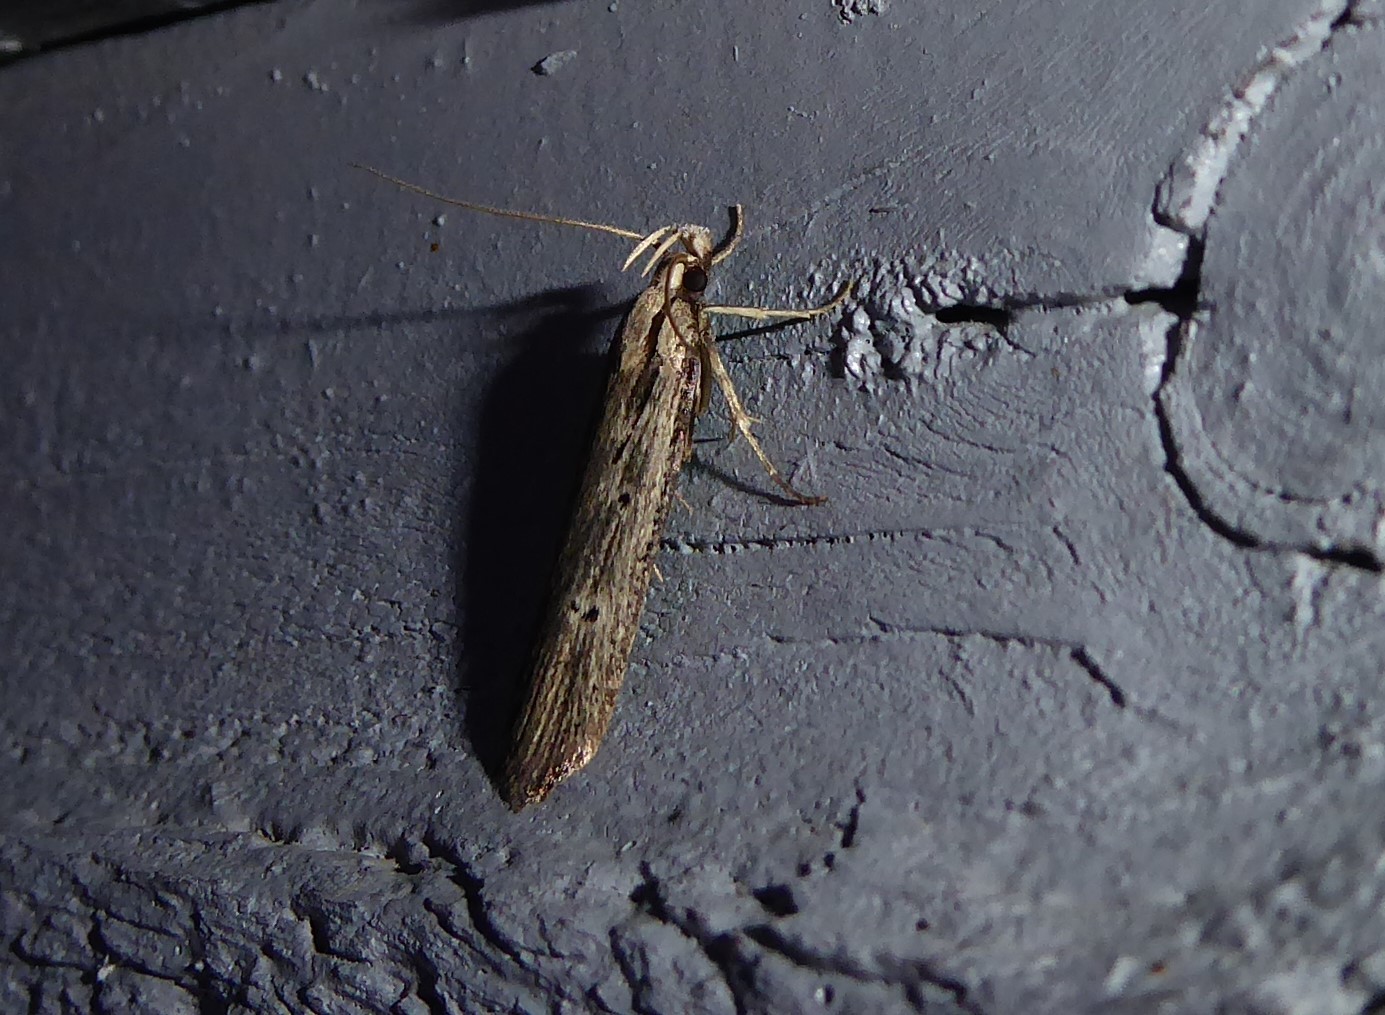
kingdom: Animalia
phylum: Arthropoda
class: Insecta
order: Lepidoptera
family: Gelechiidae
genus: Anisoplaca
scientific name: Anisoplaca ptyoptera
